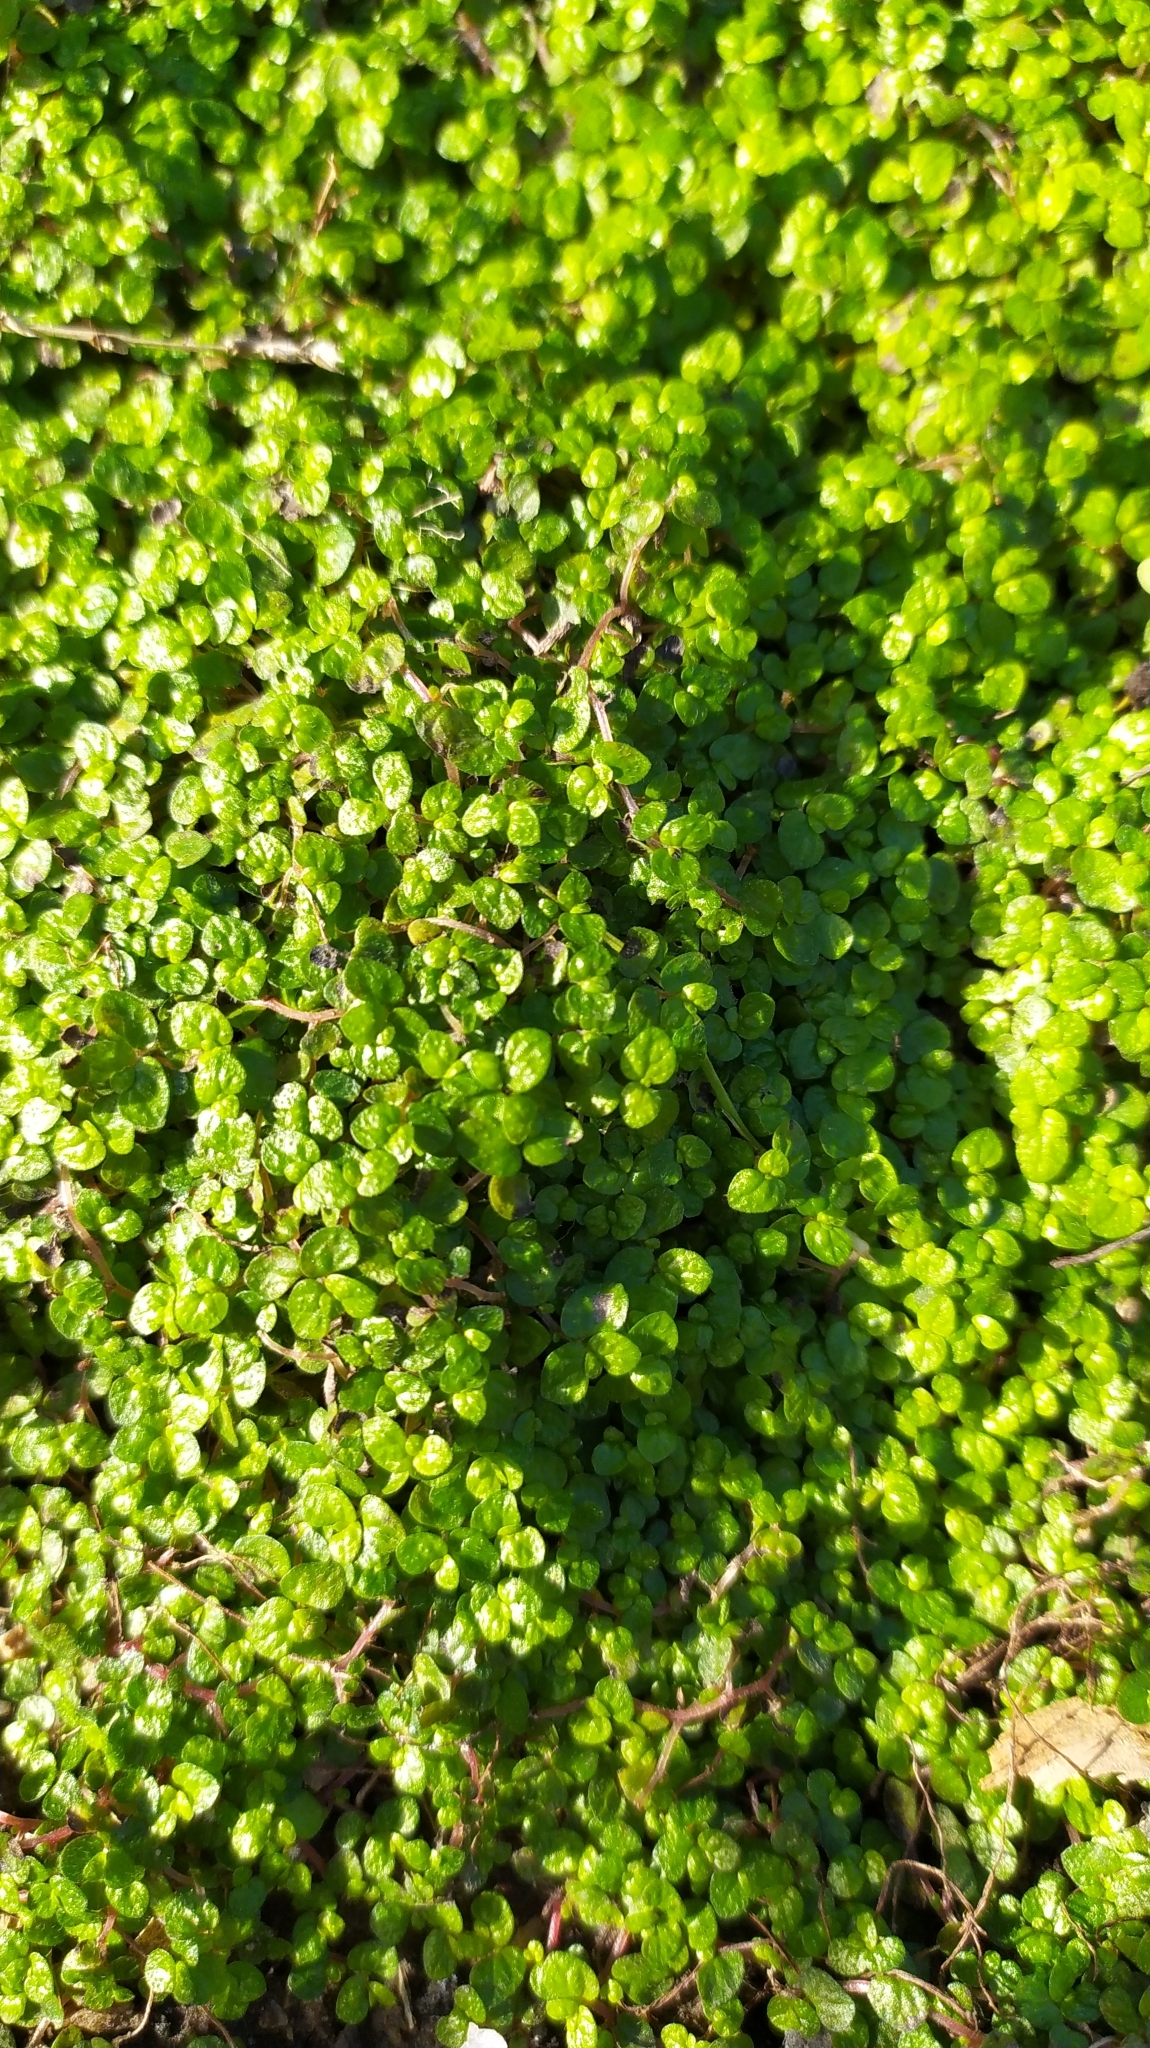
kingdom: Plantae
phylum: Tracheophyta
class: Magnoliopsida
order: Rosales
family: Urticaceae
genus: Soleirolia
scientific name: Soleirolia soleirolii
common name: Mind-your-own-business
